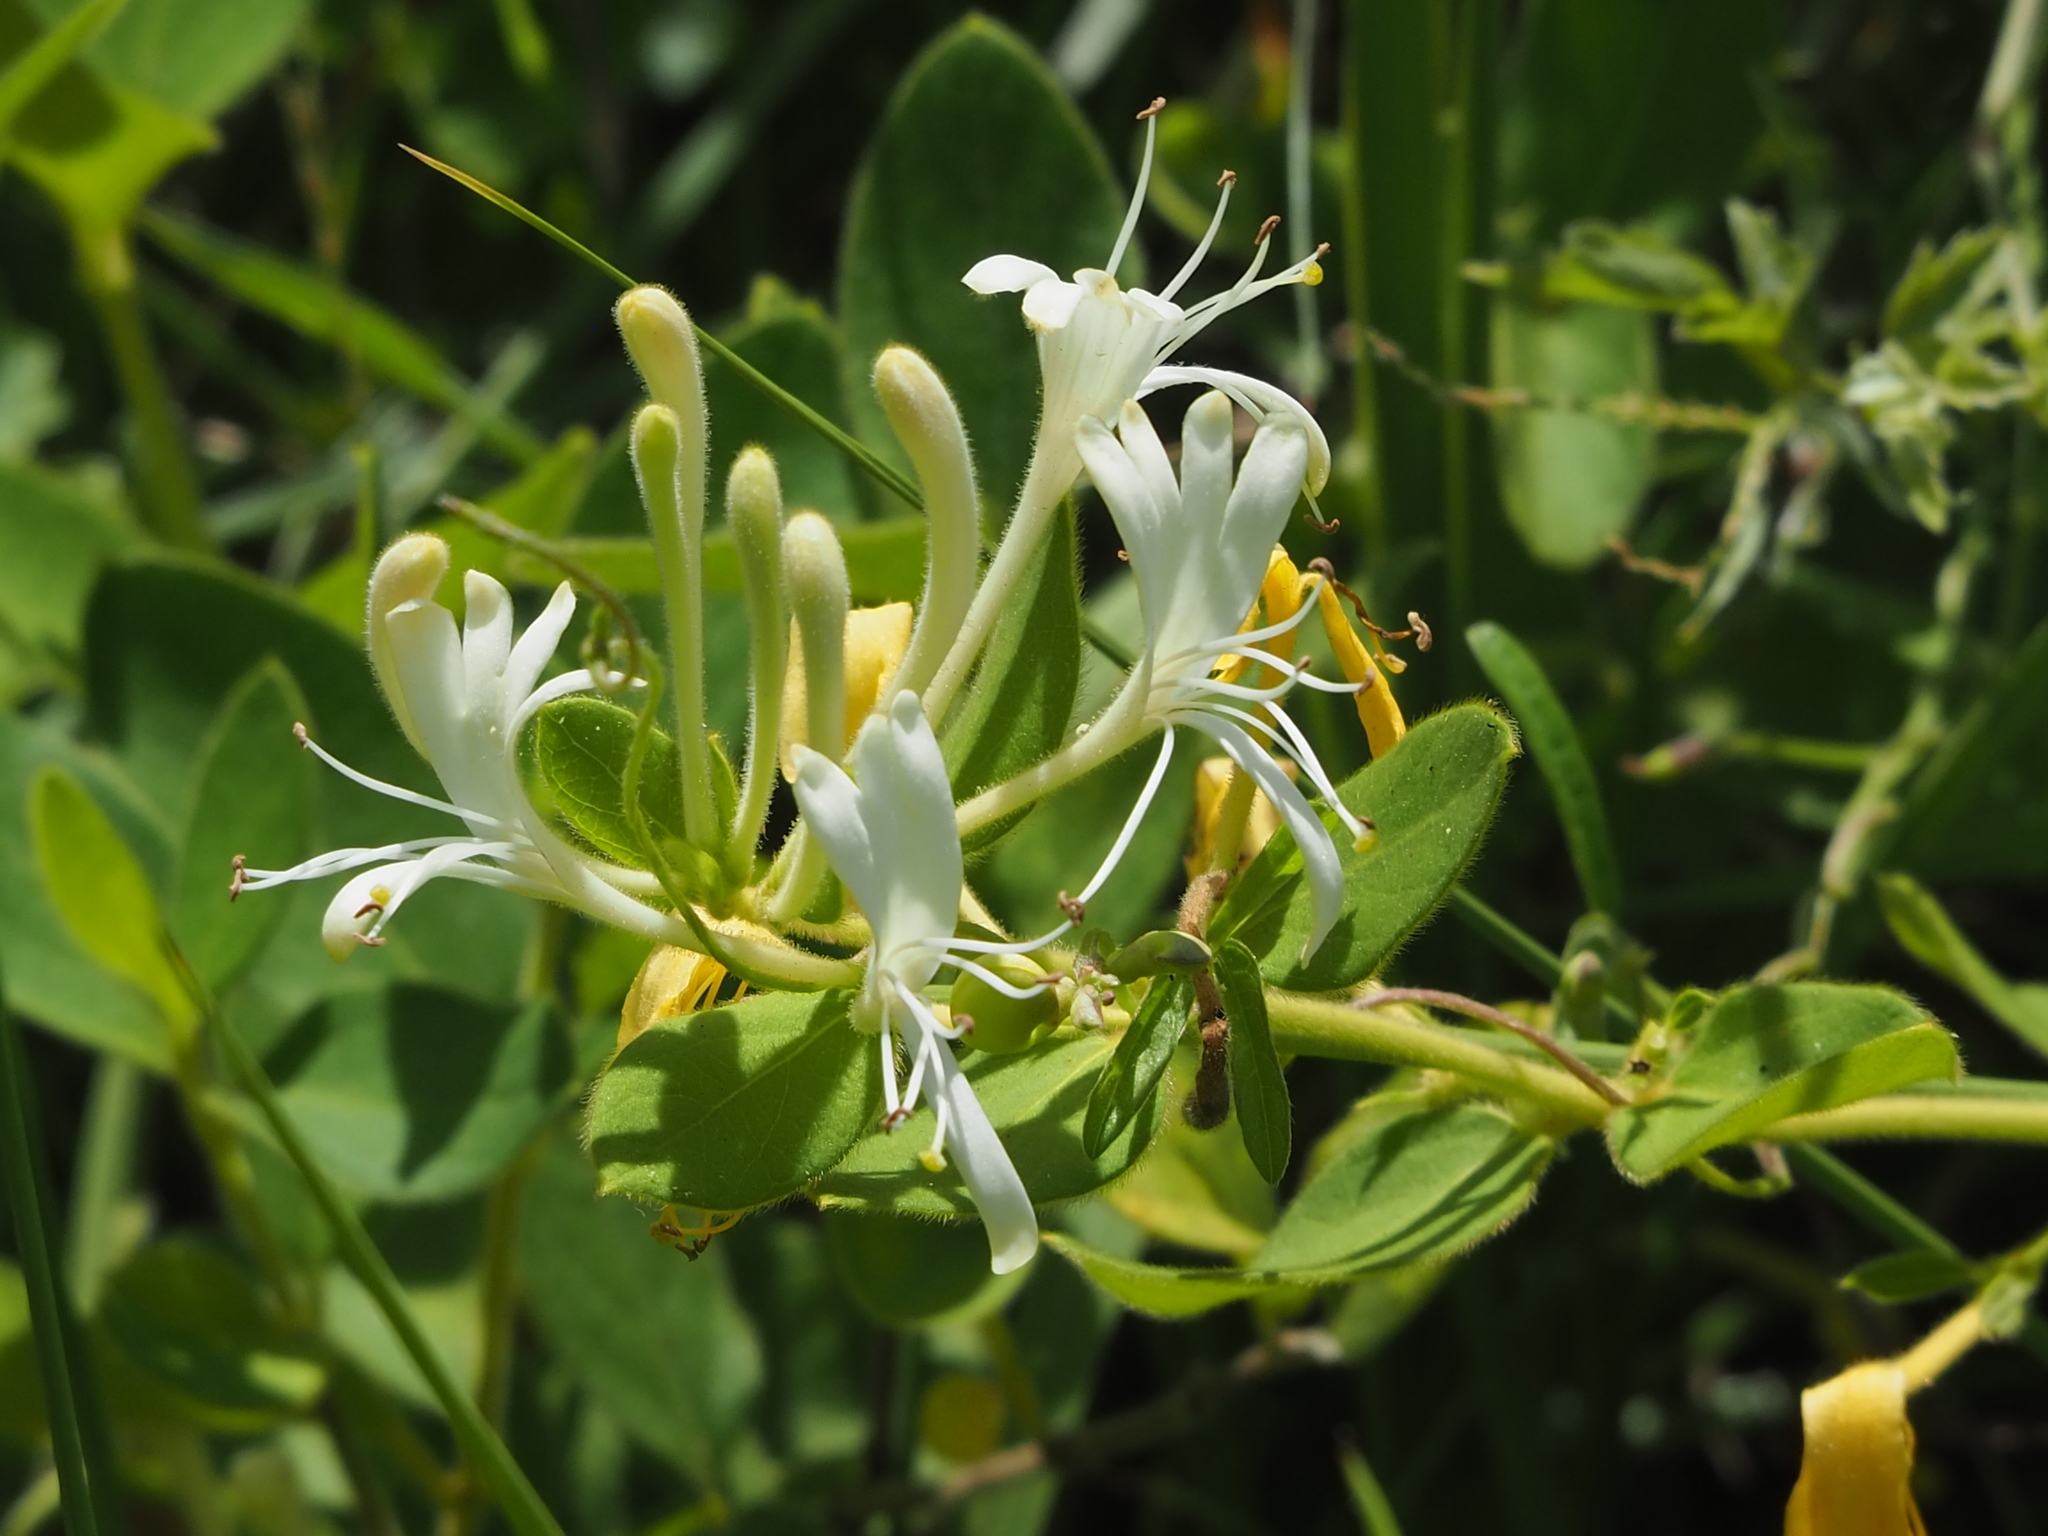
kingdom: Plantae
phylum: Tracheophyta
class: Magnoliopsida
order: Dipsacales
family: Caprifoliaceae
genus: Lonicera
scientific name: Lonicera japonica
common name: Japanese honeysuckle
